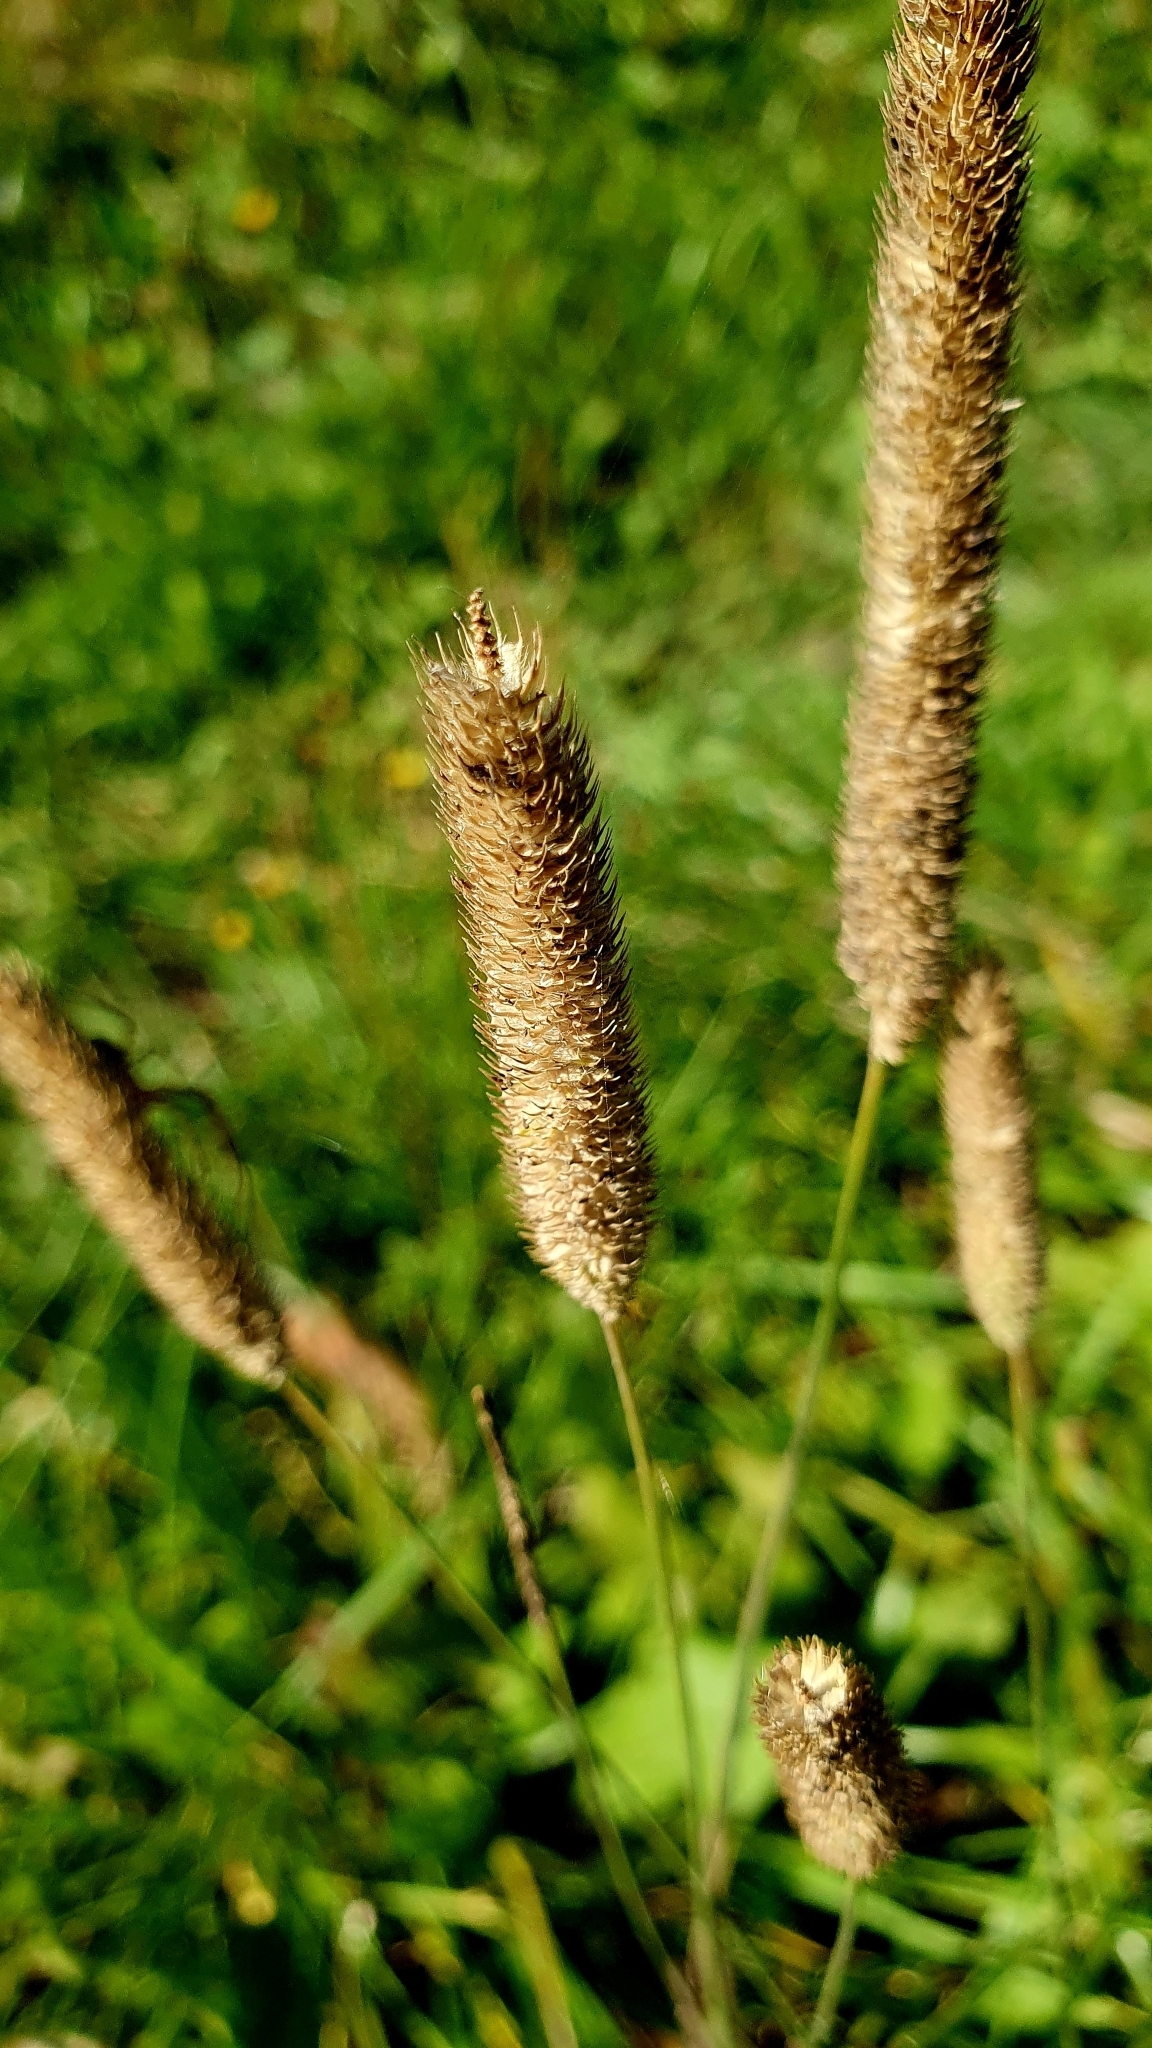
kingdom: Plantae
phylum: Tracheophyta
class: Liliopsida
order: Poales
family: Poaceae
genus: Phleum
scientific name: Phleum pratense
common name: Timothy grass
